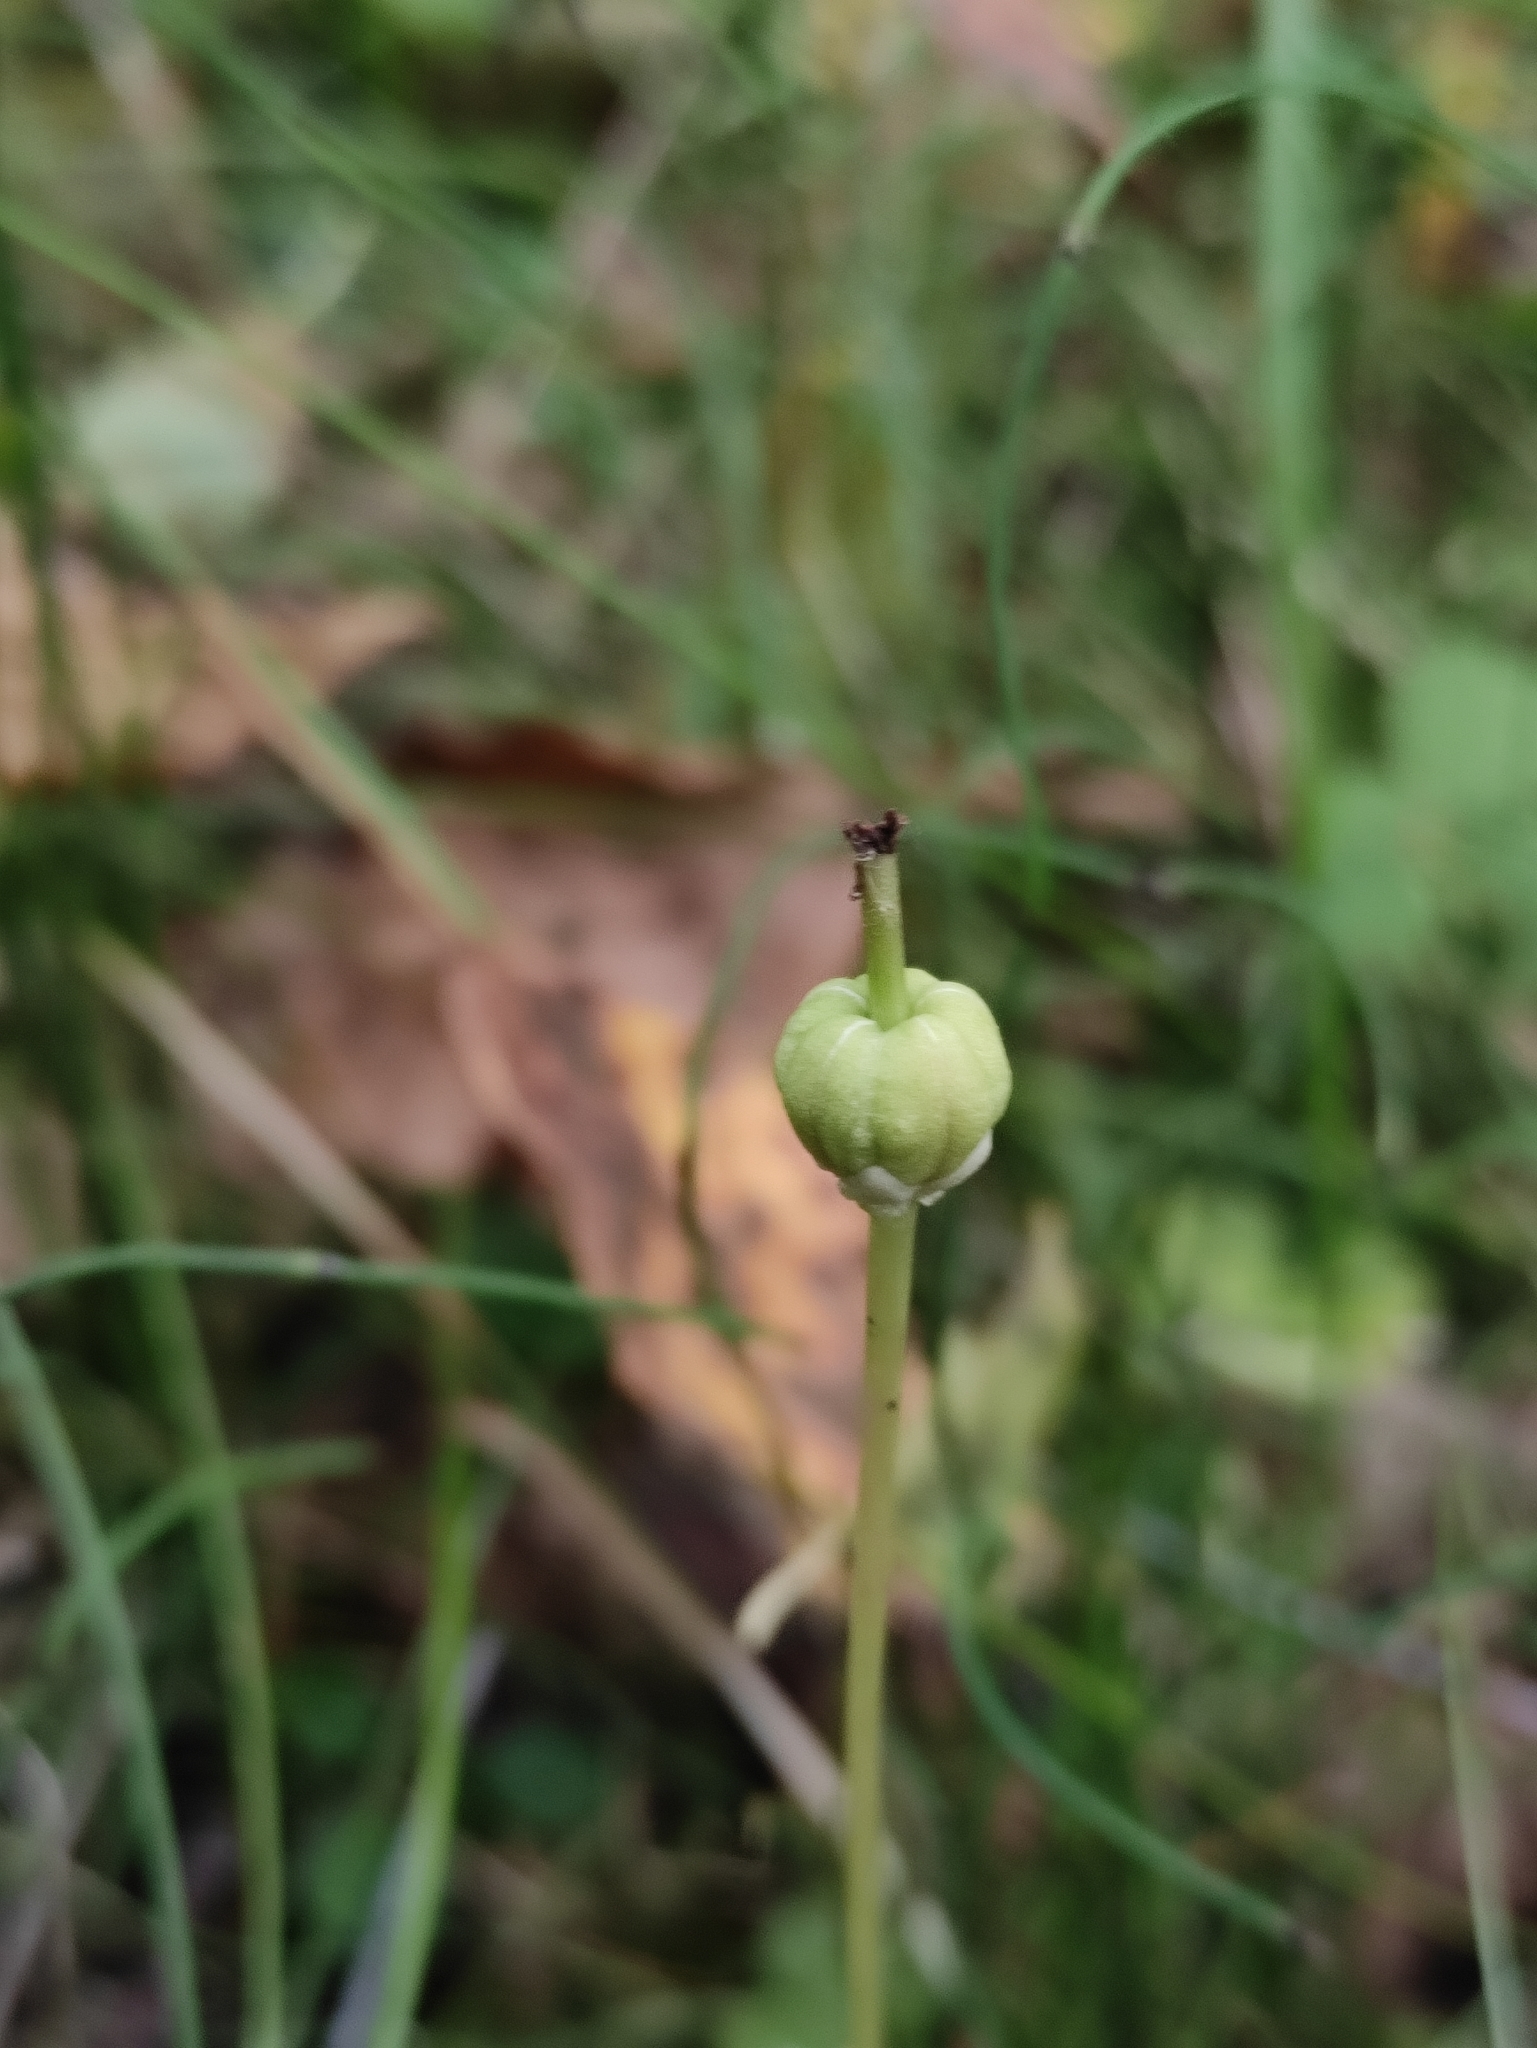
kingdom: Plantae
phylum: Tracheophyta
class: Magnoliopsida
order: Ericales
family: Ericaceae
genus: Moneses
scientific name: Moneses uniflora
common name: One-flowered wintergreen
